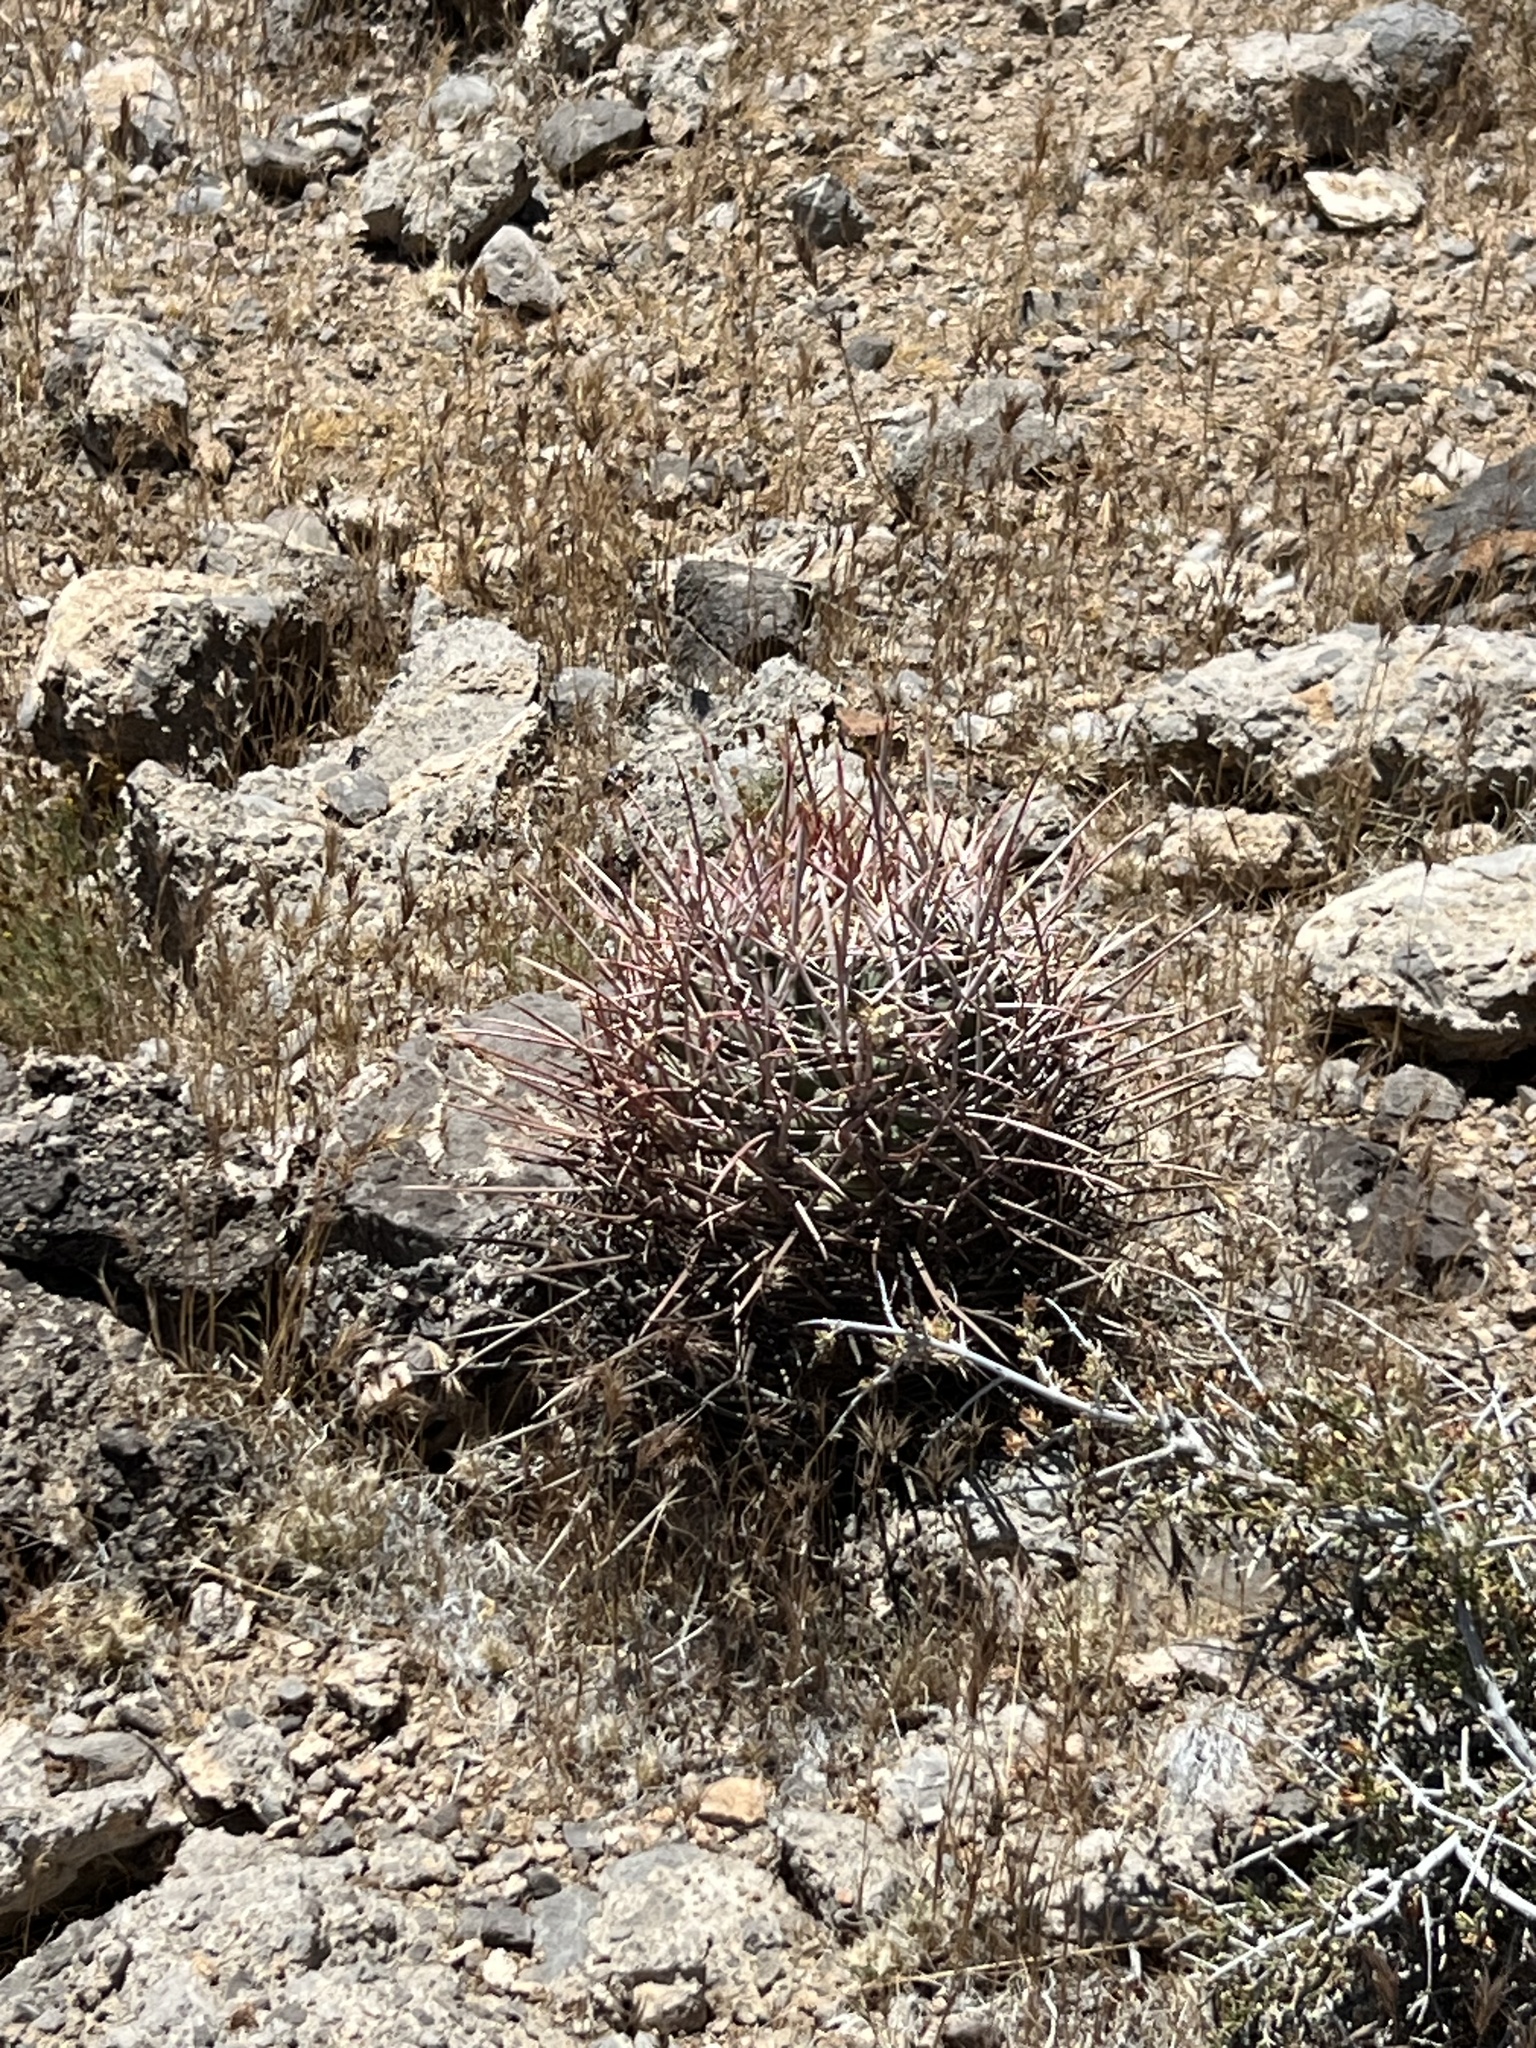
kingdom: Plantae
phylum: Tracheophyta
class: Magnoliopsida
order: Caryophyllales
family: Cactaceae
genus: Echinocactus
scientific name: Echinocactus polycephalus
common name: Cottontop cactus
